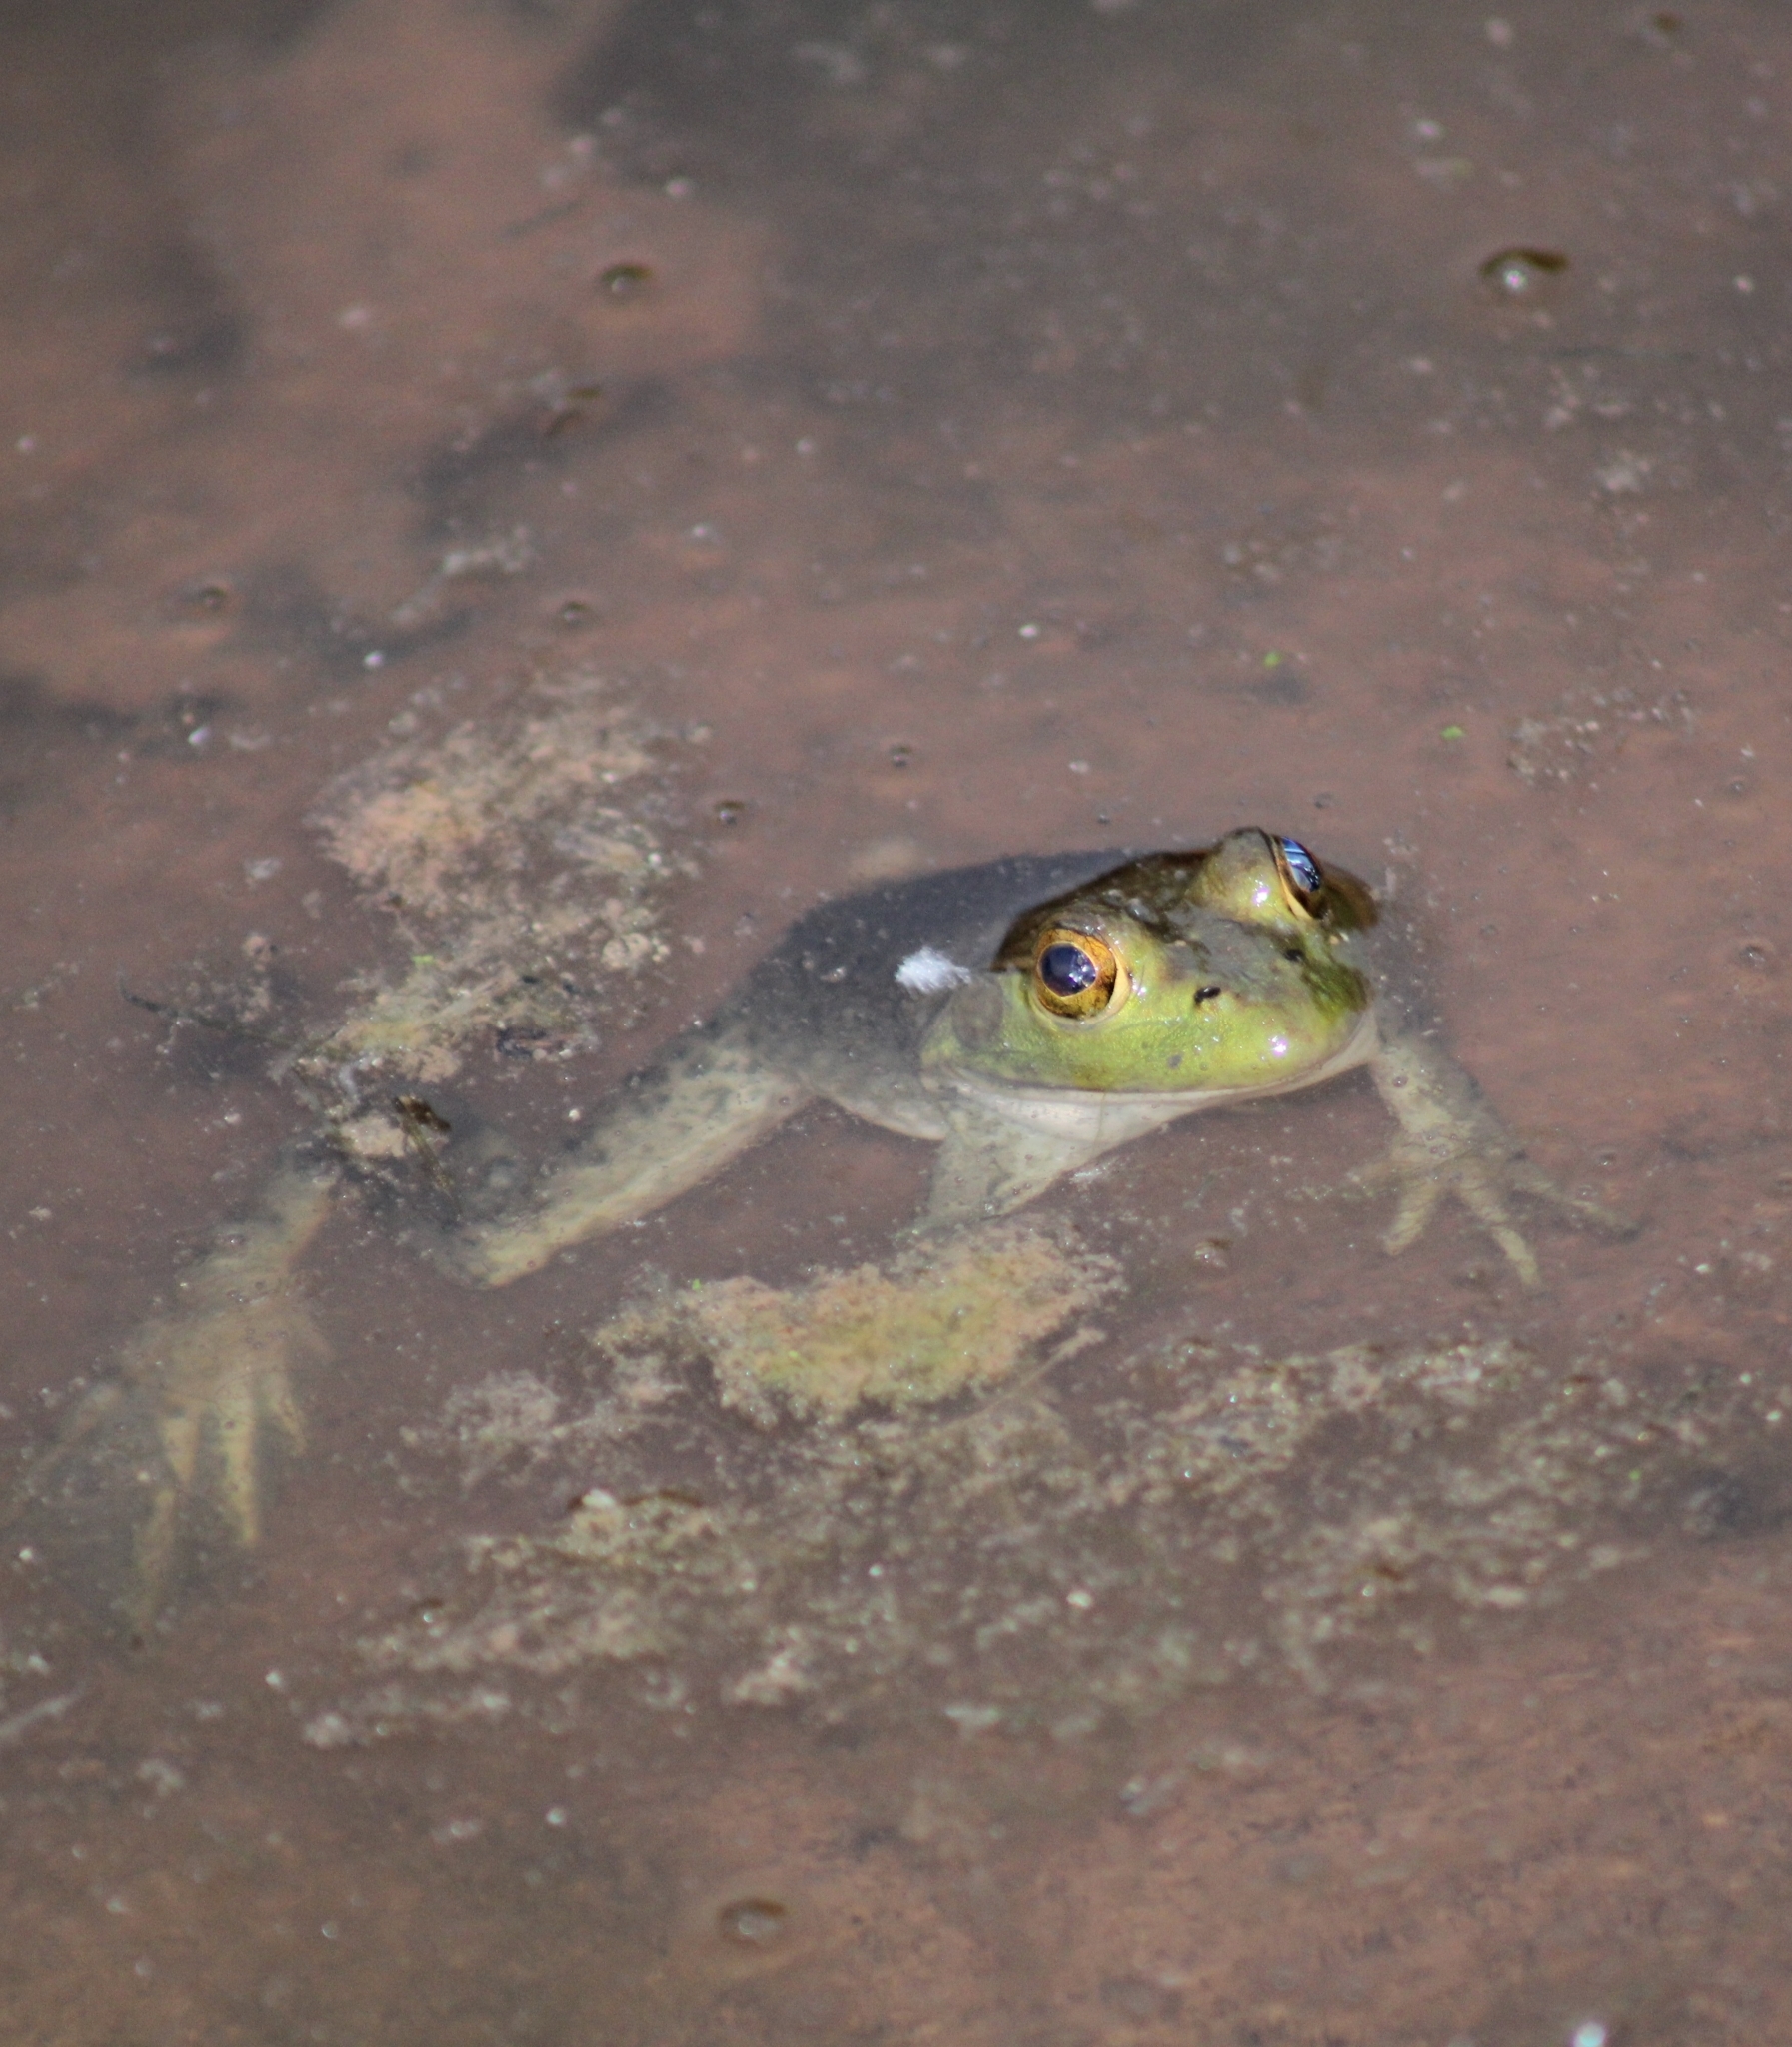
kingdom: Animalia
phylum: Chordata
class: Amphibia
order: Anura
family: Ranidae
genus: Lithobates
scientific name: Lithobates catesbeianus
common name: American bullfrog
